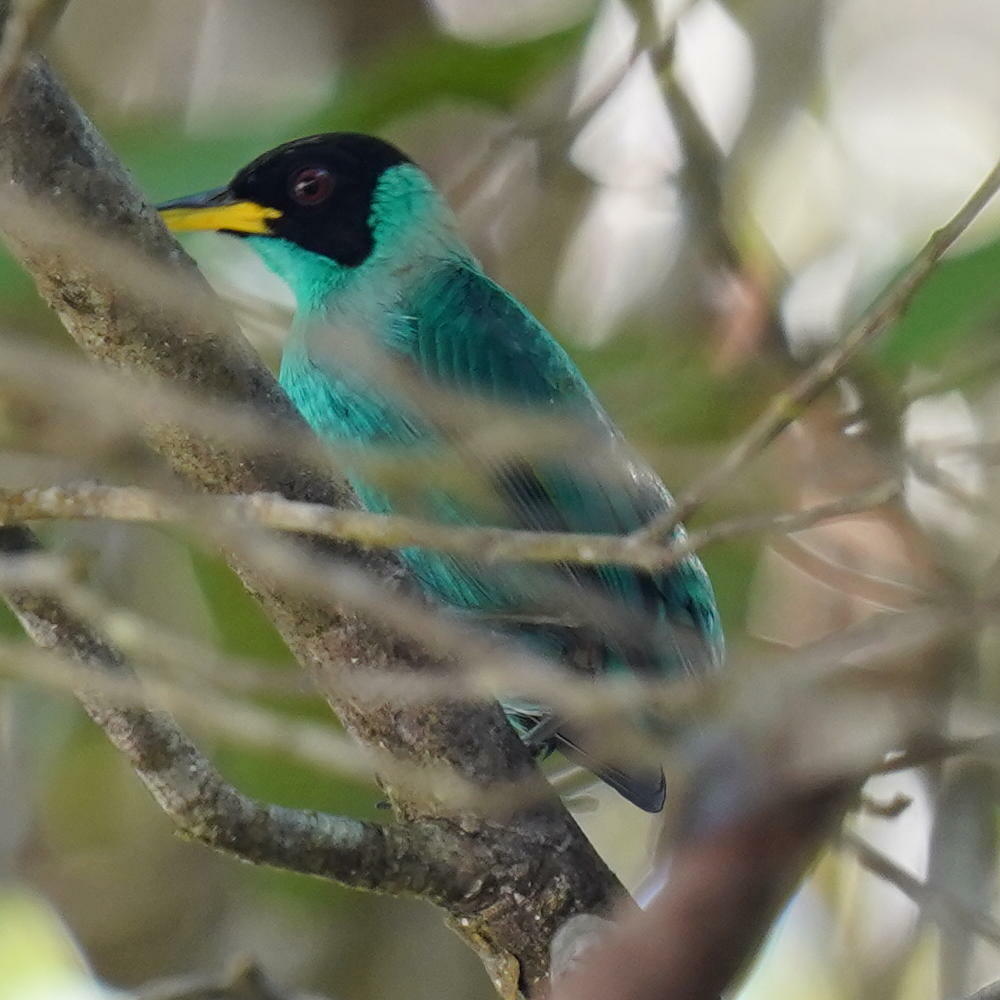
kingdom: Animalia
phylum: Chordata
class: Aves
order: Passeriformes
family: Thraupidae
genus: Chlorophanes
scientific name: Chlorophanes spiza
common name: Green honeycreeper
